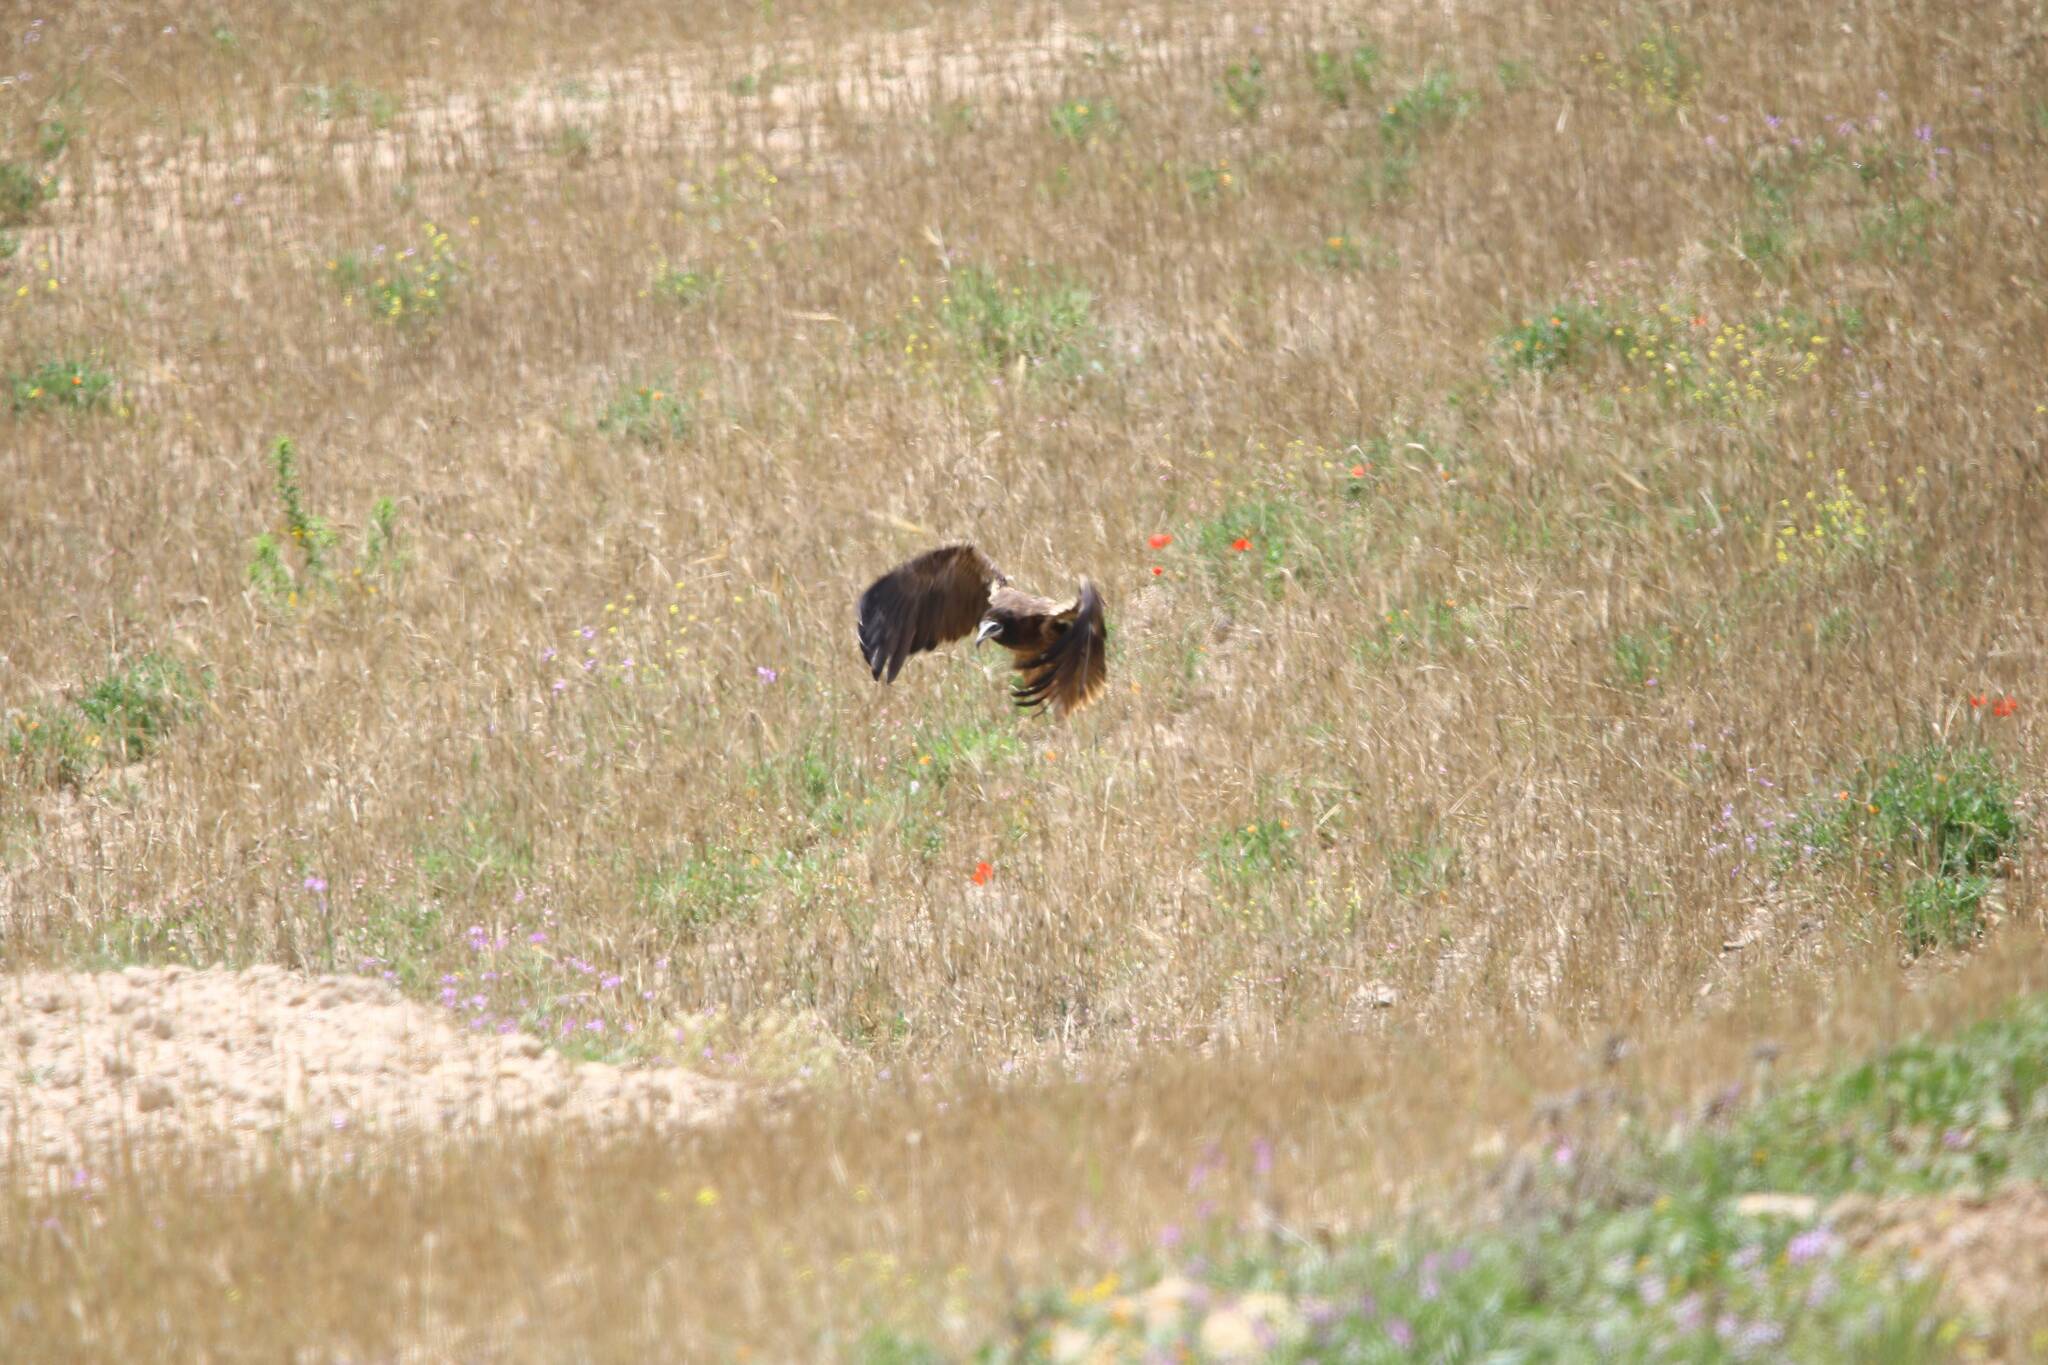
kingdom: Animalia
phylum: Chordata
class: Aves
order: Accipitriformes
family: Accipitridae
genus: Neophron
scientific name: Neophron percnopterus
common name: Egyptian vulture
